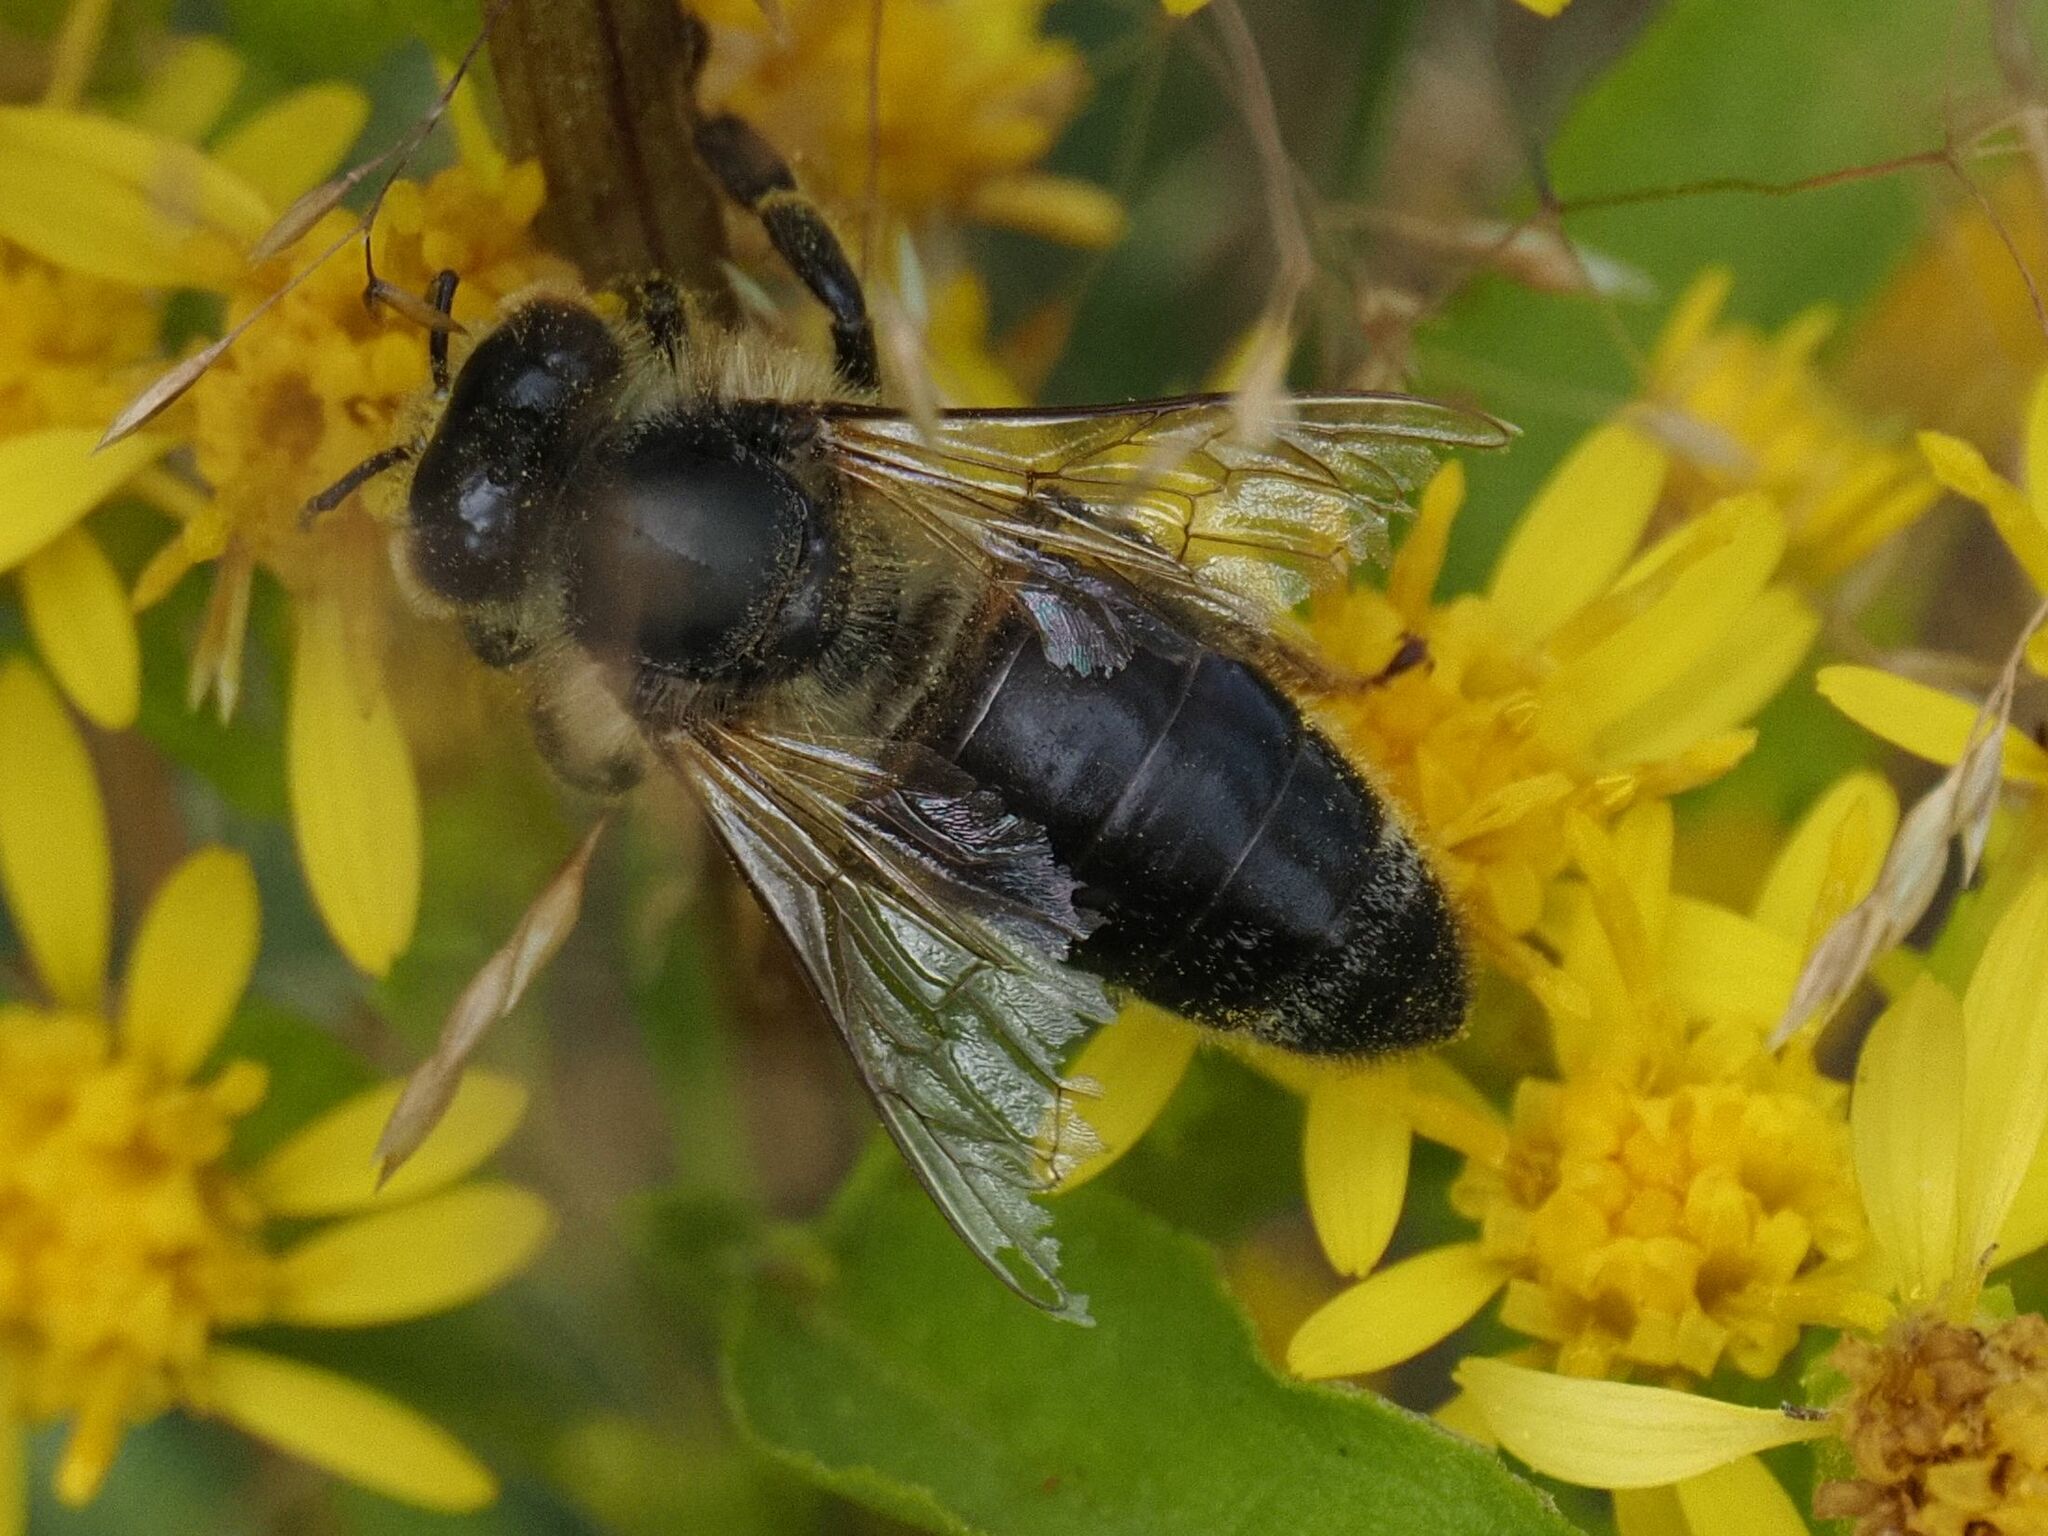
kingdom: Animalia
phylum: Arthropoda
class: Insecta
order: Hymenoptera
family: Apidae
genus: Apis
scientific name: Apis mellifera
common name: Honey bee
